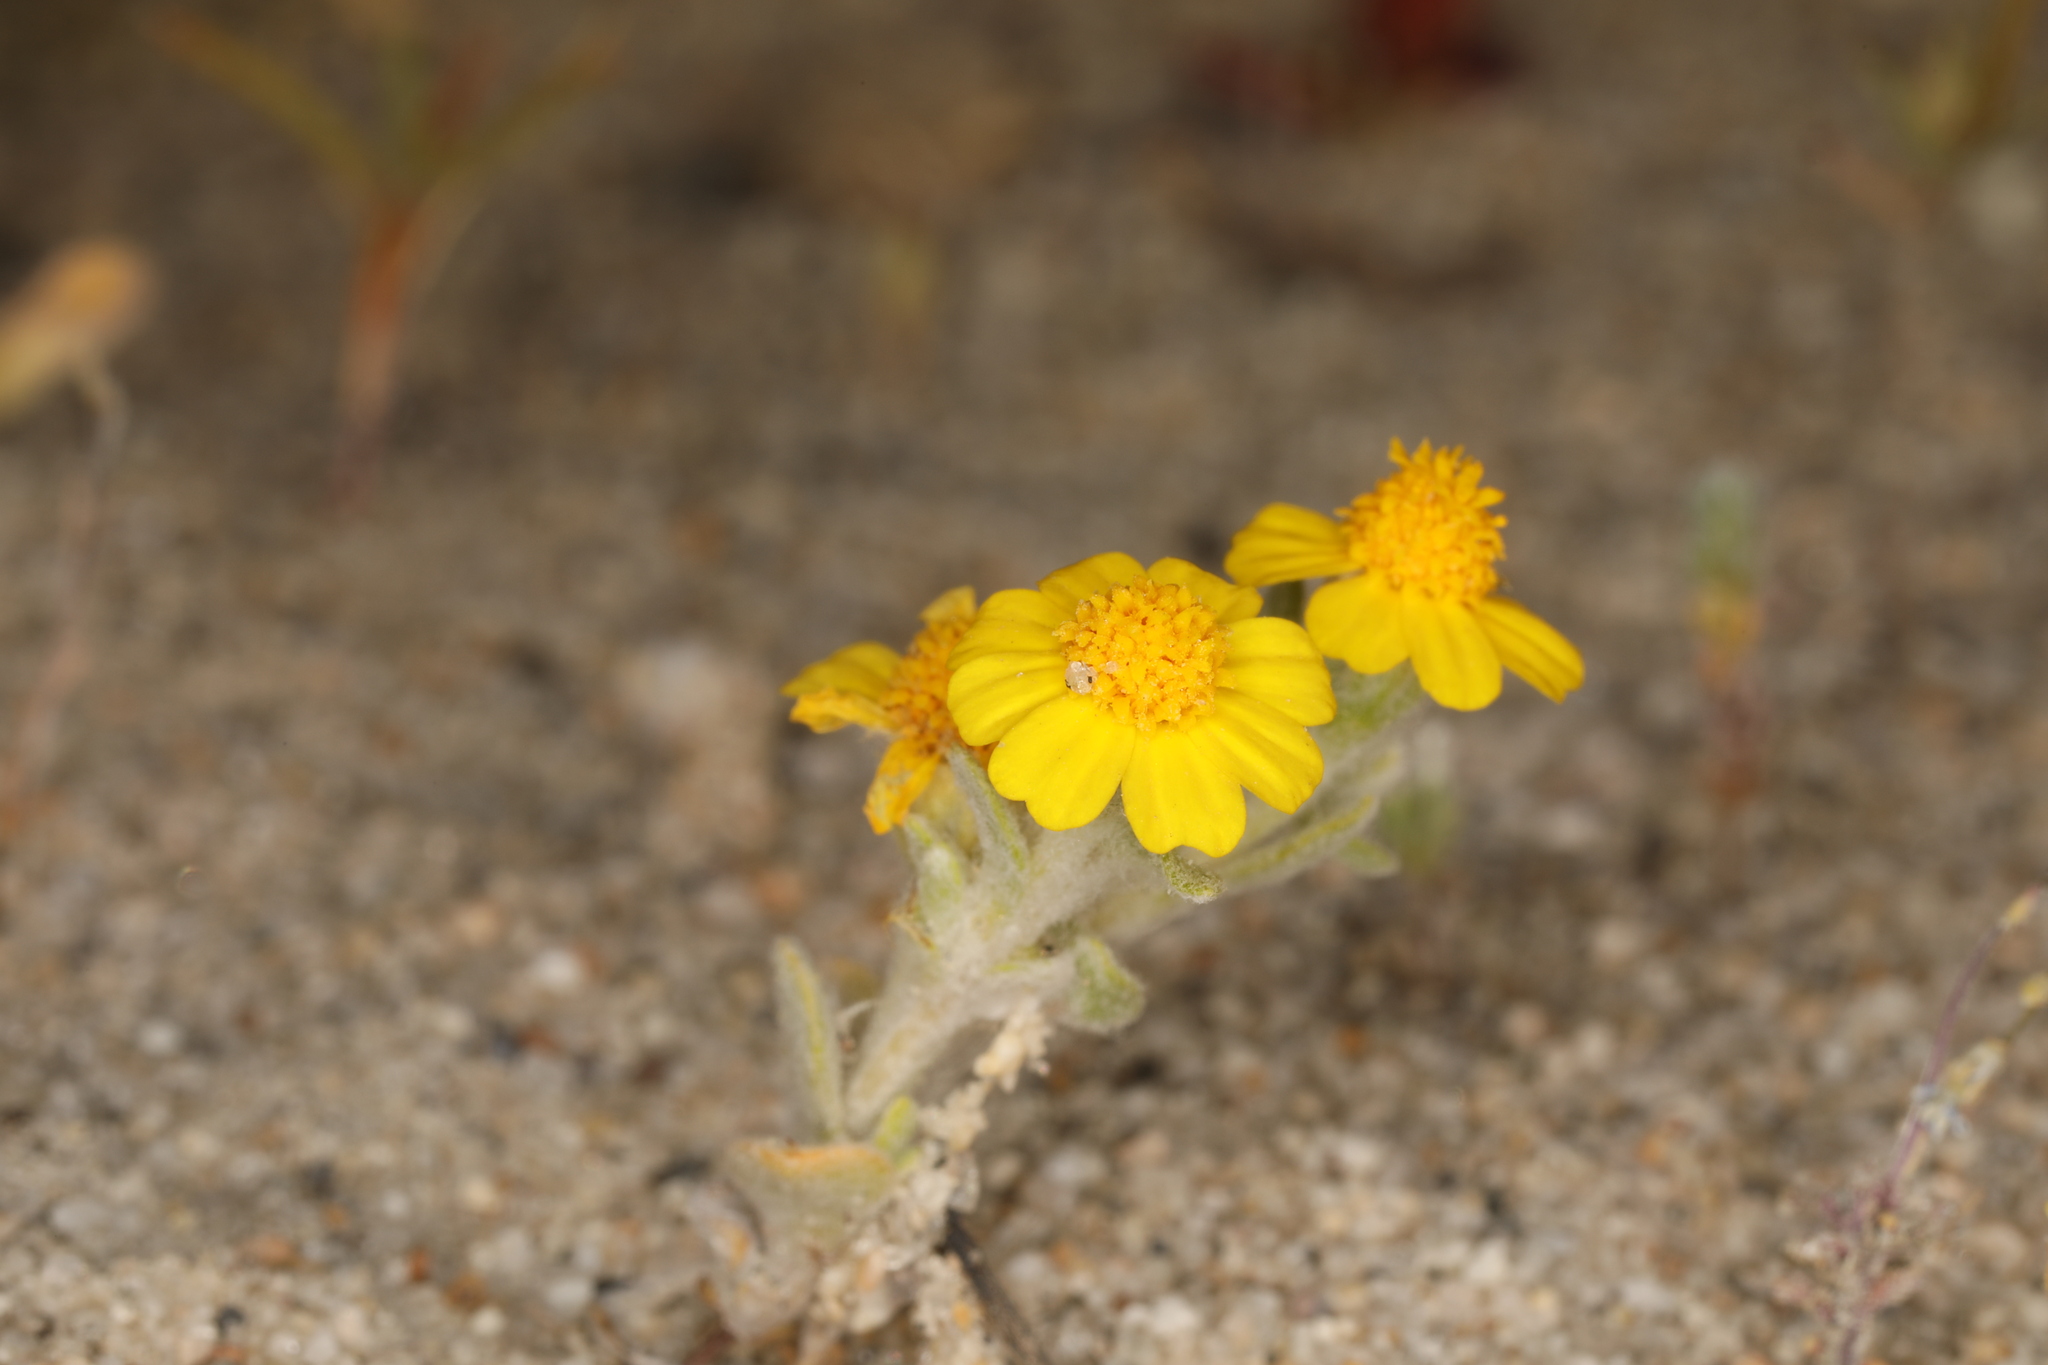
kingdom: Plantae
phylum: Tracheophyta
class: Magnoliopsida
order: Asterales
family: Asteraceae
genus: Eriophyllum
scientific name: Eriophyllum wallacei
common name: Wallace's woolly daisy
